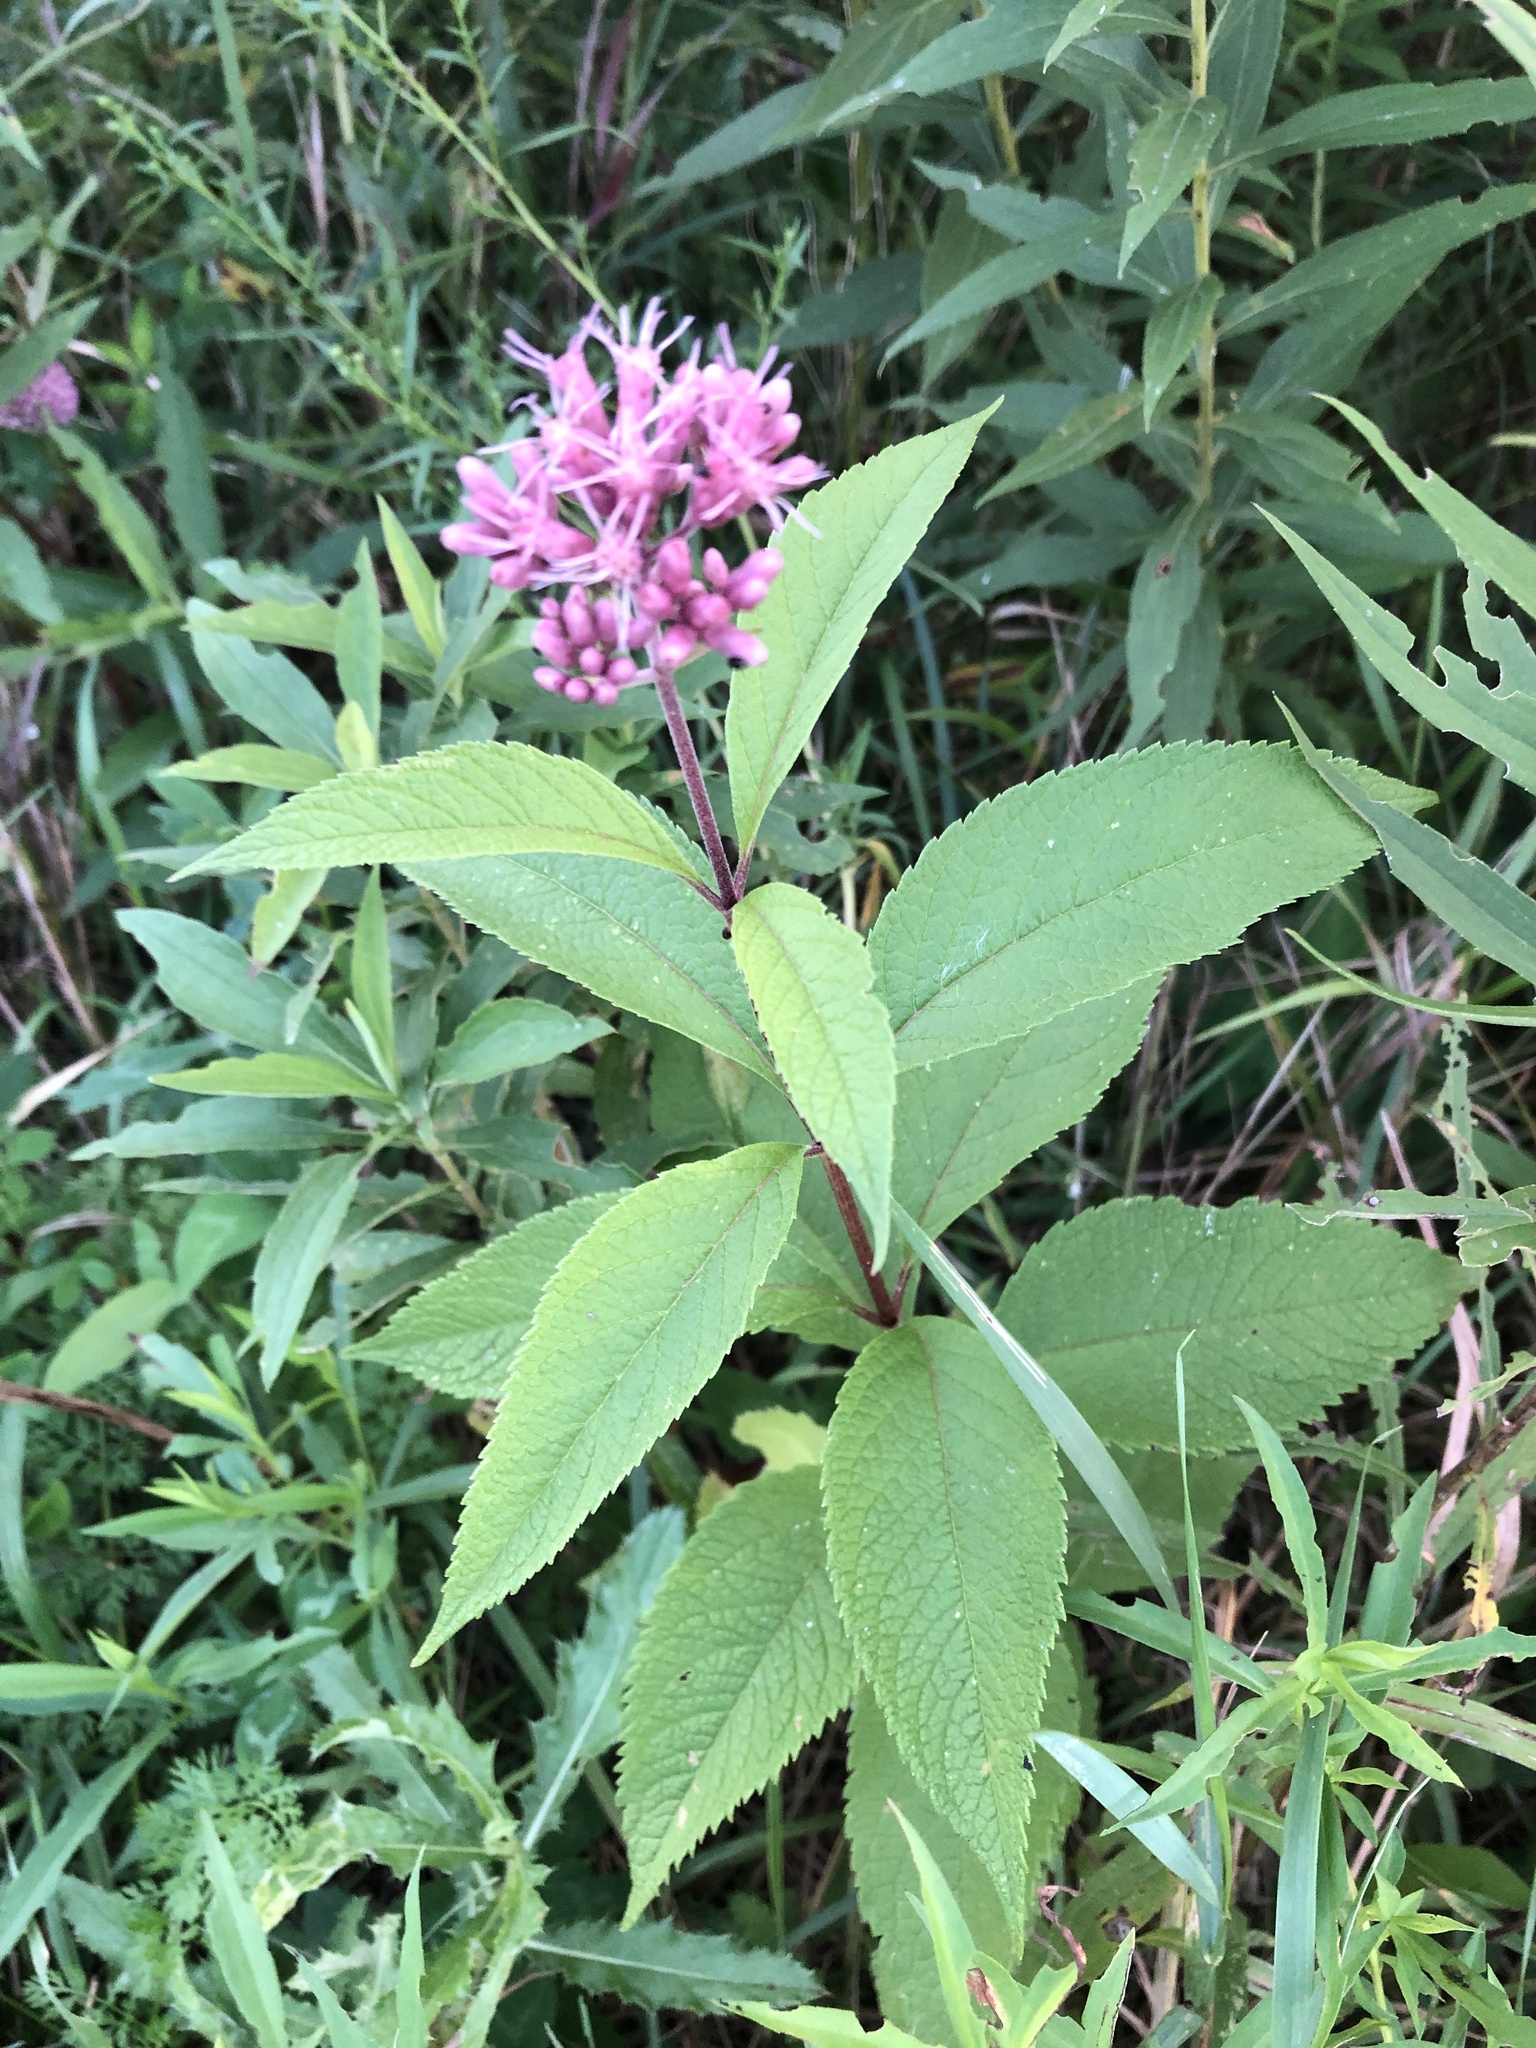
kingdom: Plantae
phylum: Tracheophyta
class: Magnoliopsida
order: Asterales
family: Asteraceae
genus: Eutrochium
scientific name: Eutrochium maculatum
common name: Spotted joe pye weed
